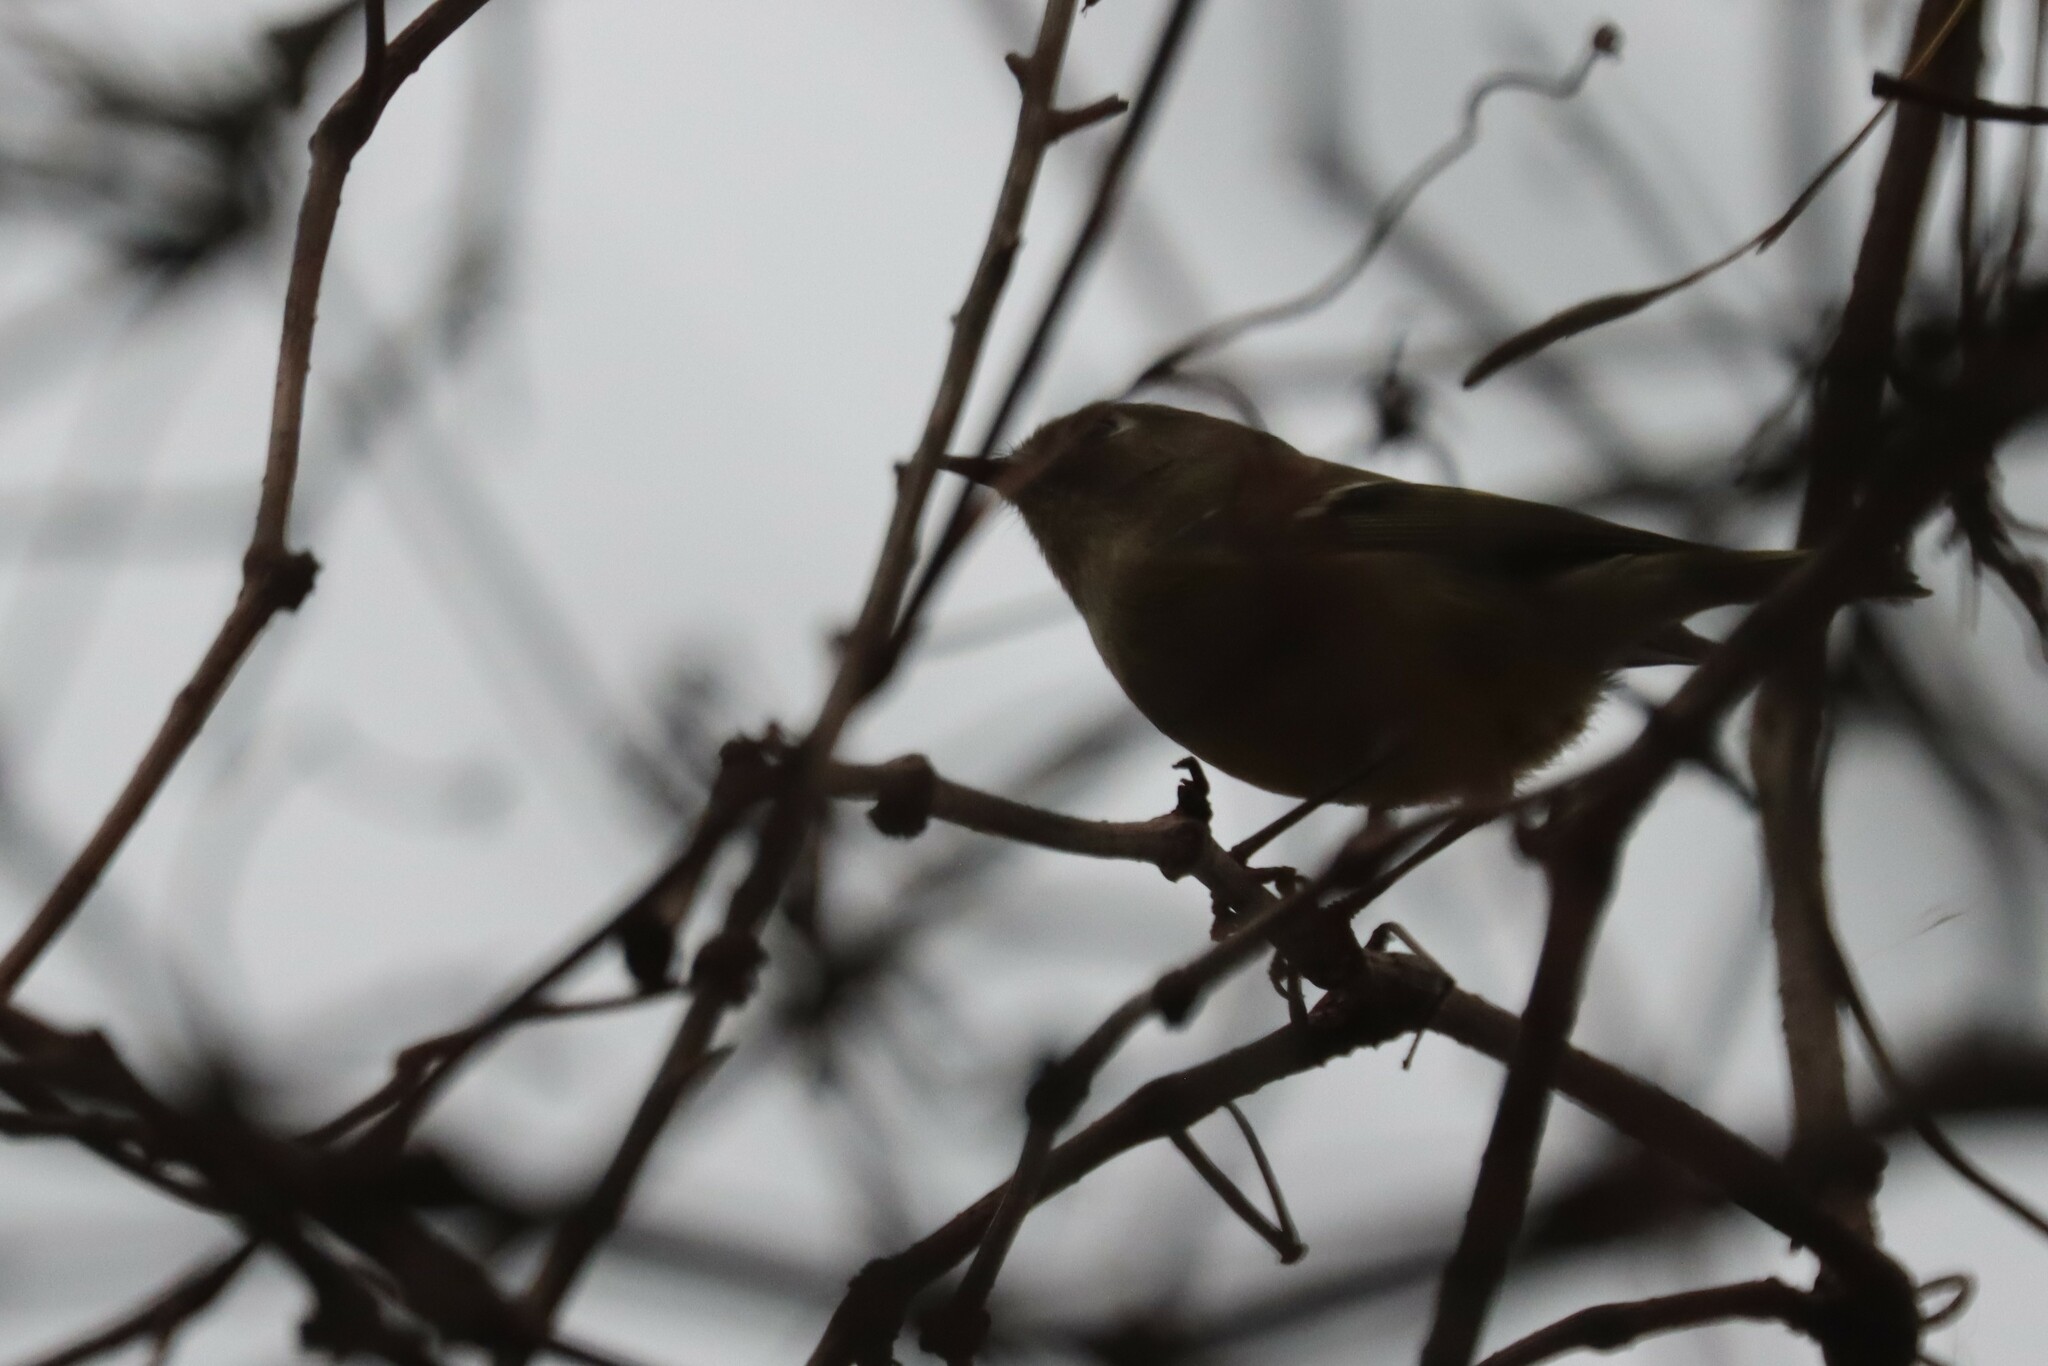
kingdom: Animalia
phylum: Chordata
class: Aves
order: Passeriformes
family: Regulidae
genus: Regulus
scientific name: Regulus calendula
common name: Ruby-crowned kinglet
